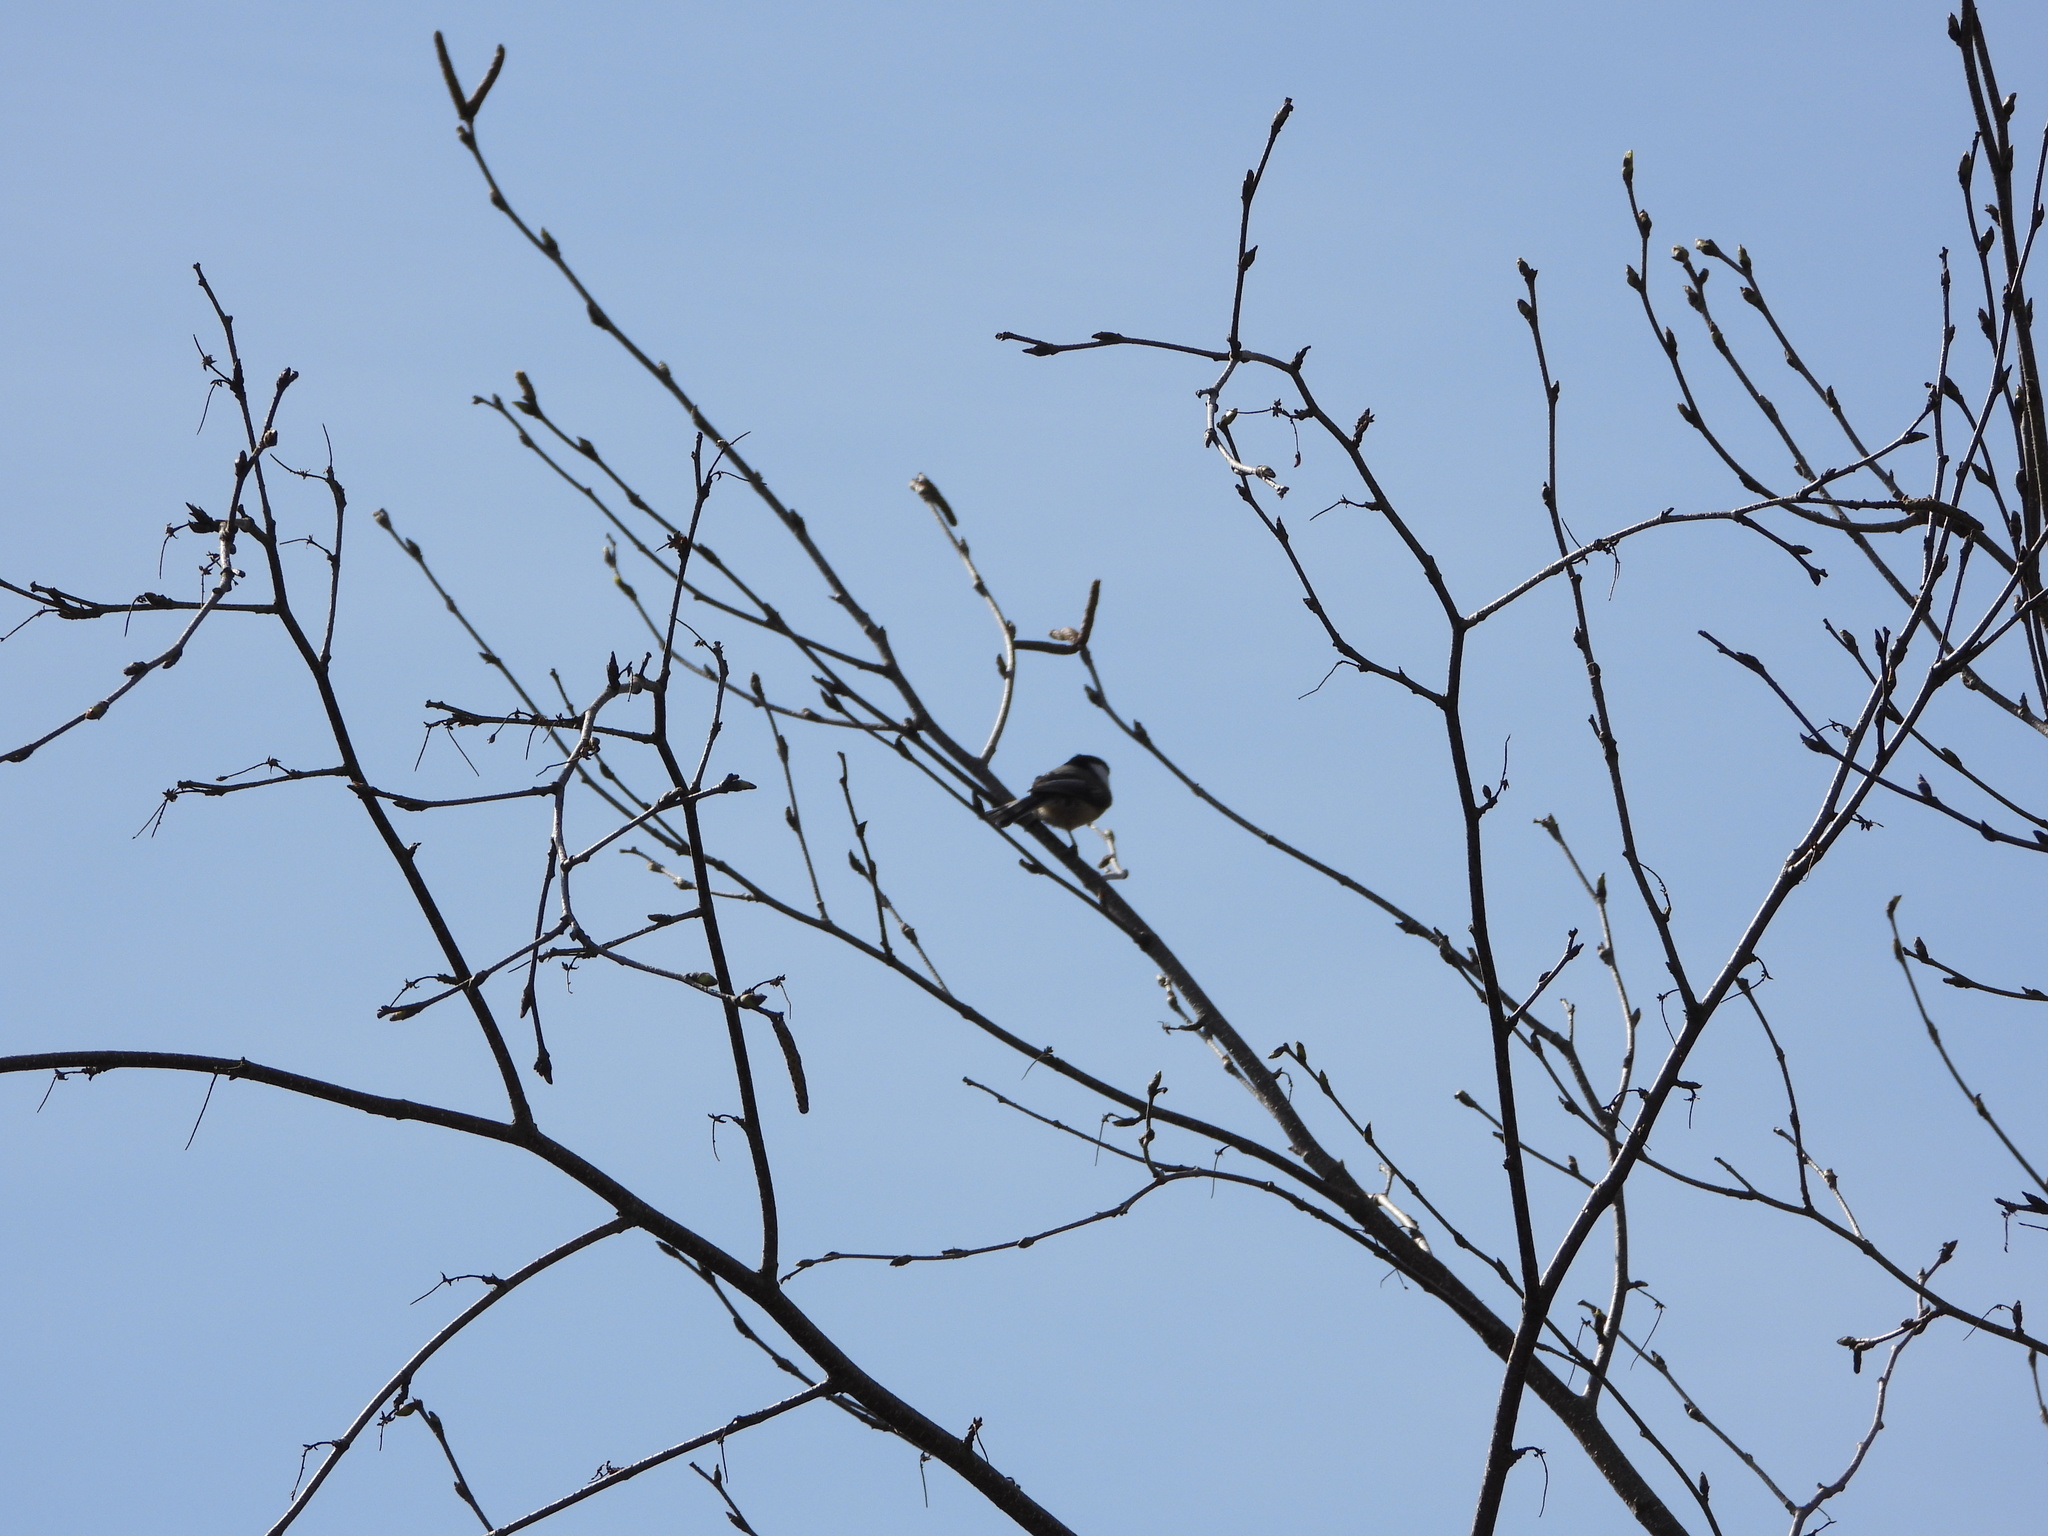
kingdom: Animalia
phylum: Chordata
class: Aves
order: Passeriformes
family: Paridae
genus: Poecile
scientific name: Poecile atricapillus
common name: Black-capped chickadee
